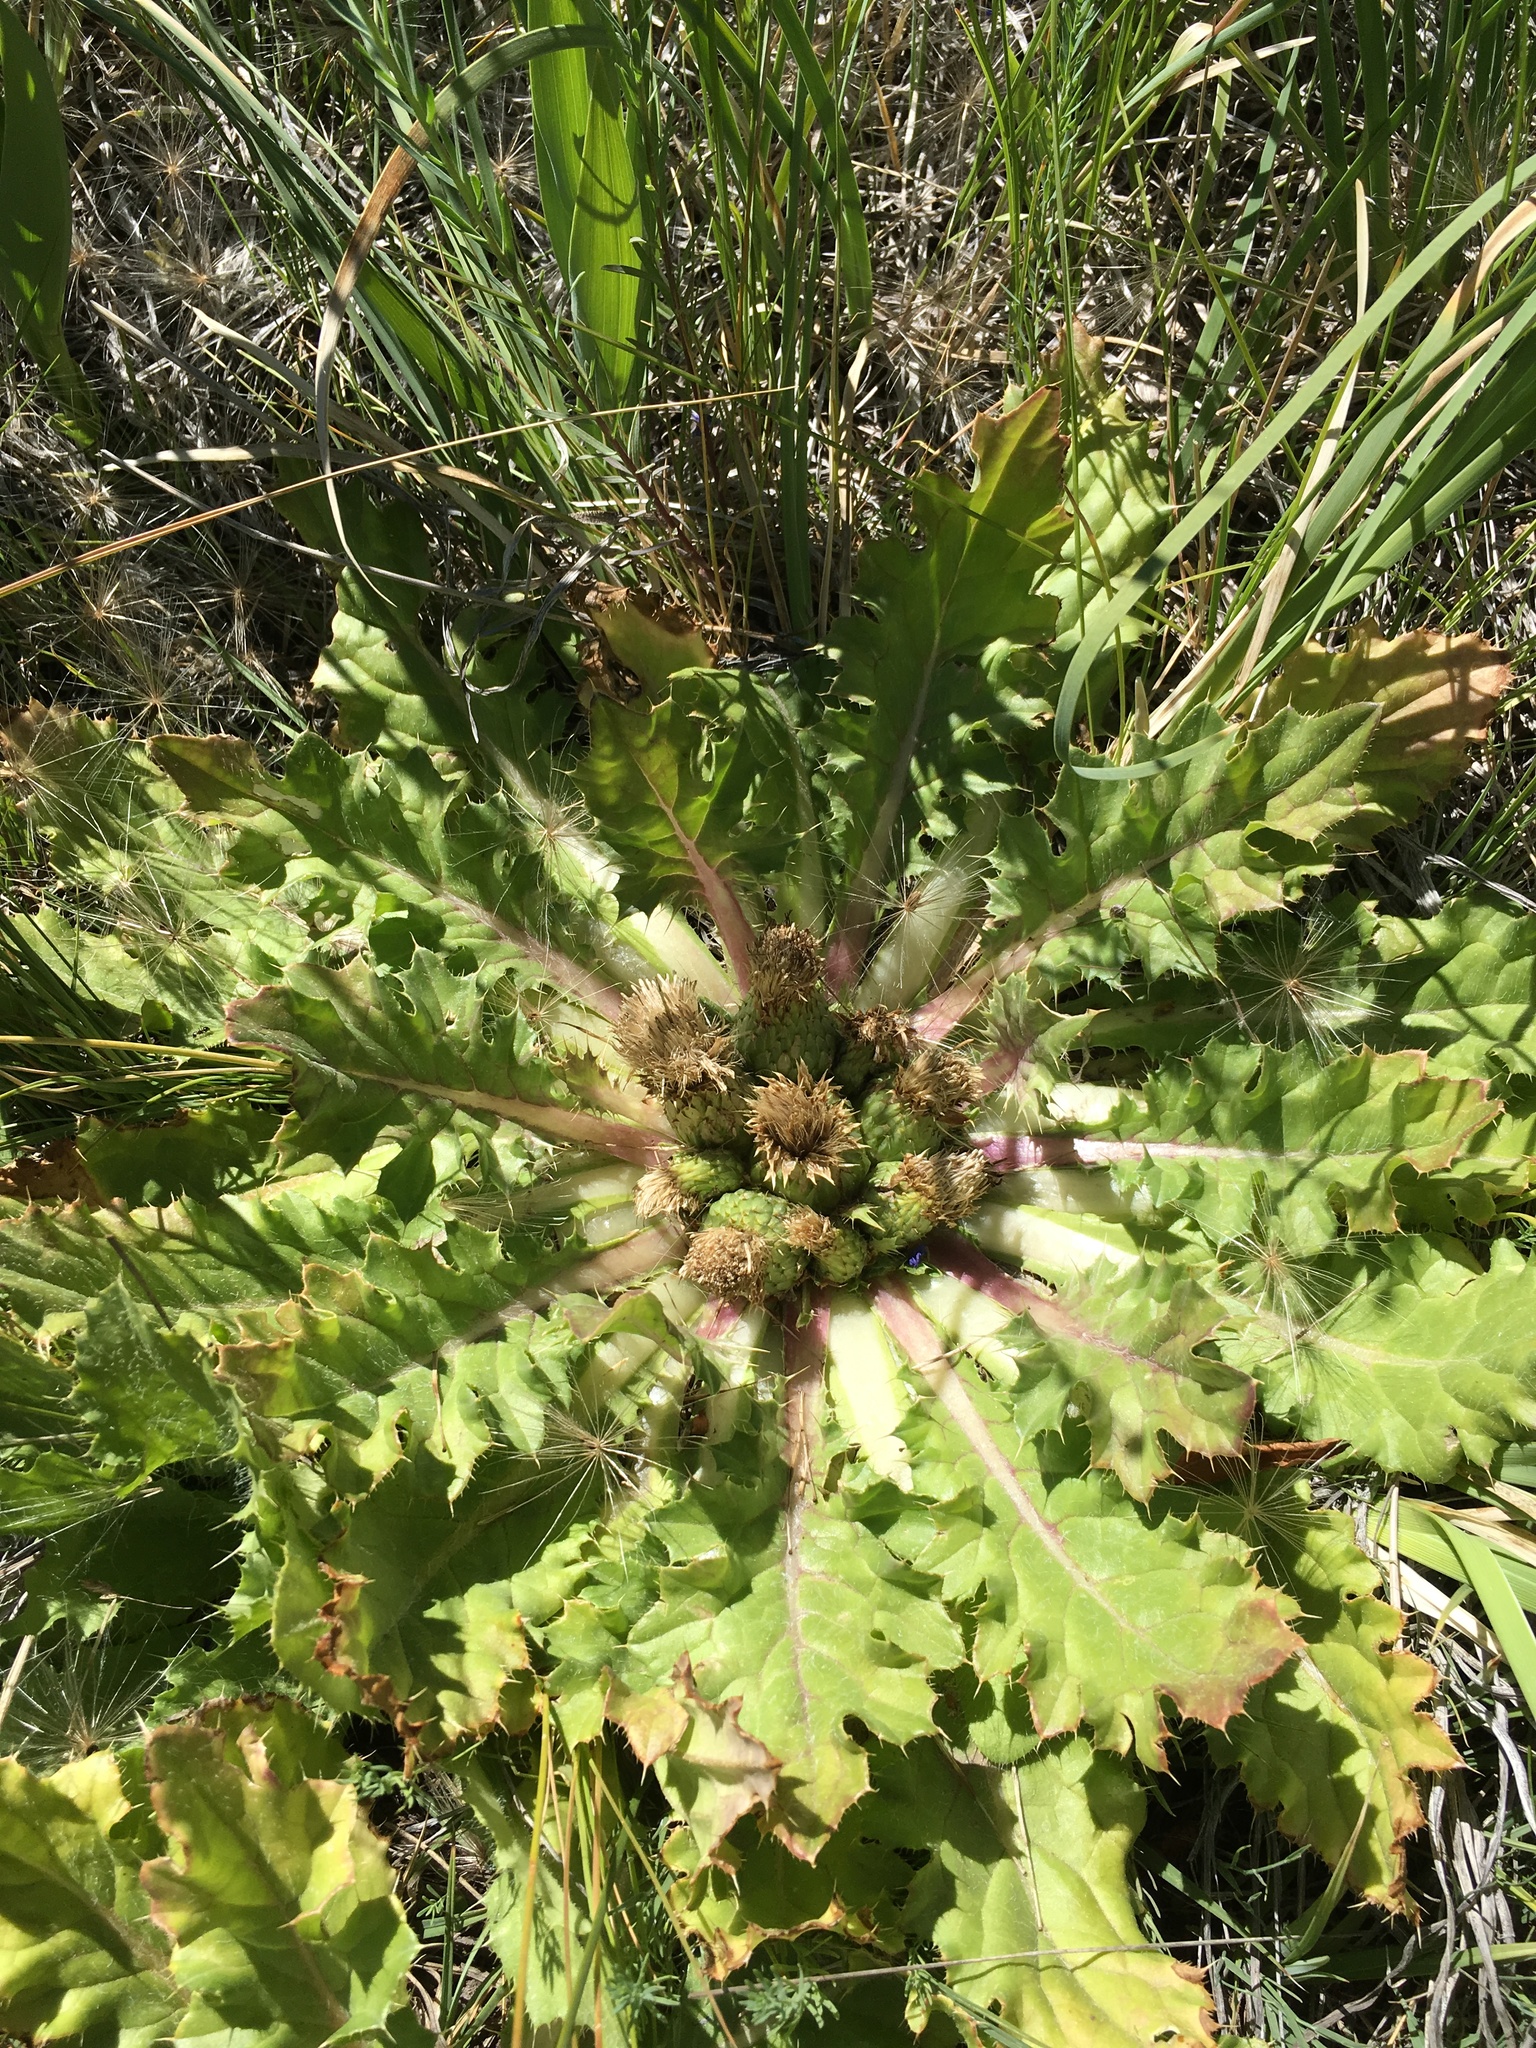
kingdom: Plantae
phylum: Tracheophyta
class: Magnoliopsida
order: Asterales
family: Asteraceae
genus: Cirsium
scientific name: Cirsium congdonii
